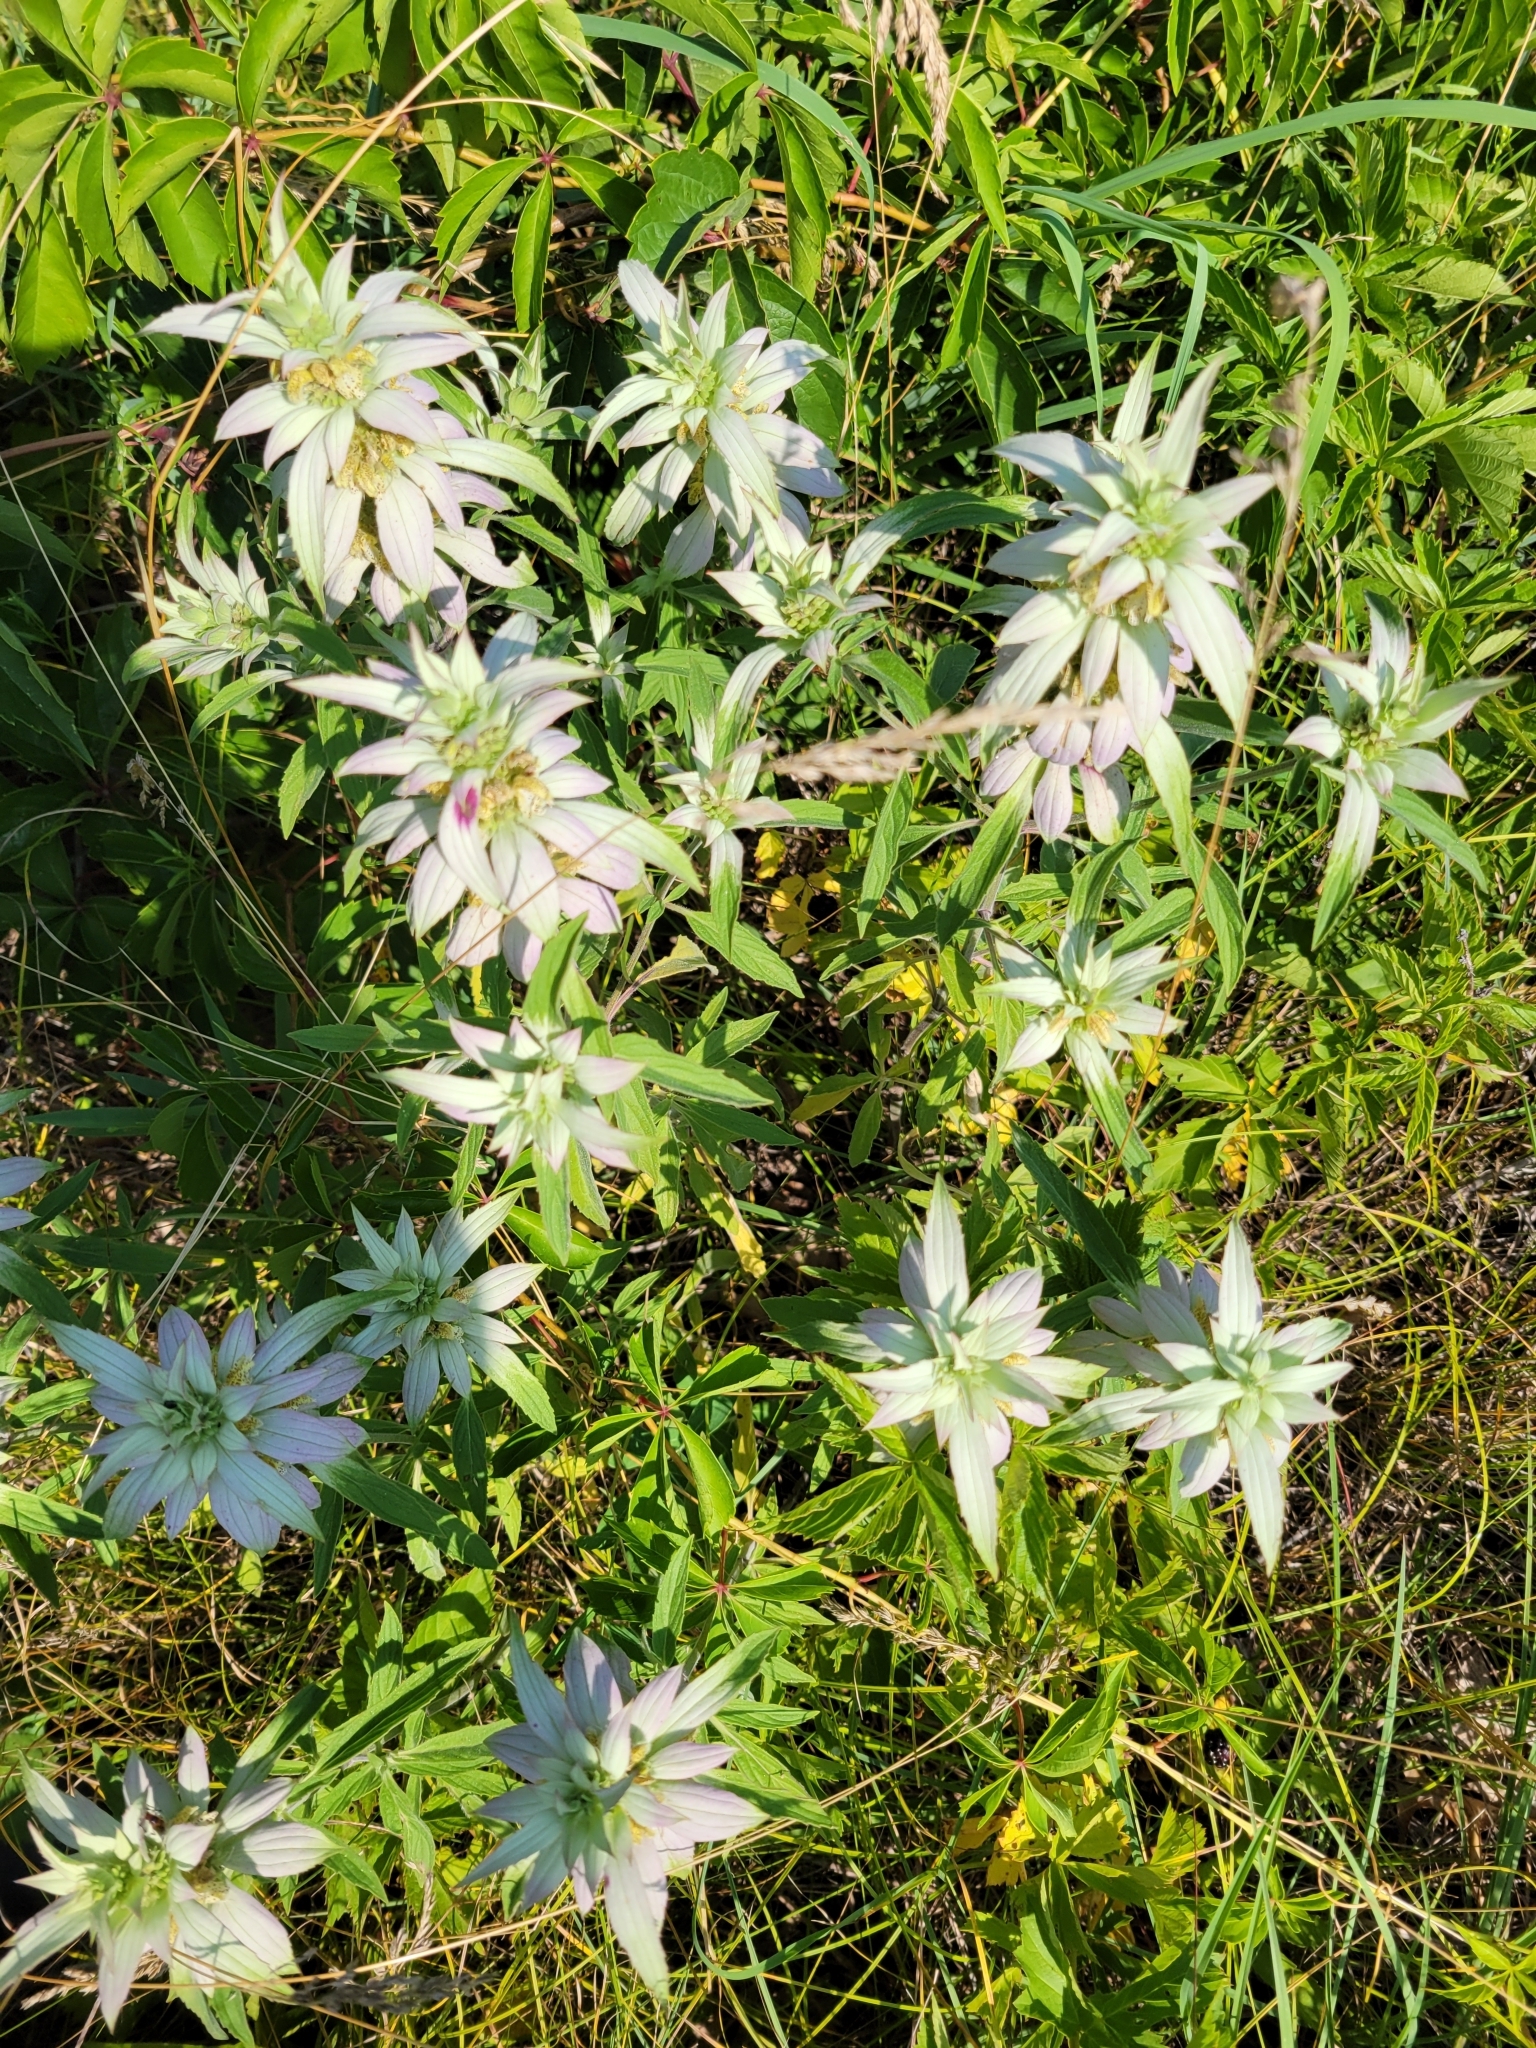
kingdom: Plantae
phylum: Tracheophyta
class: Magnoliopsida
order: Lamiales
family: Lamiaceae
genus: Monarda
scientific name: Monarda punctata
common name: Dotted monarda
